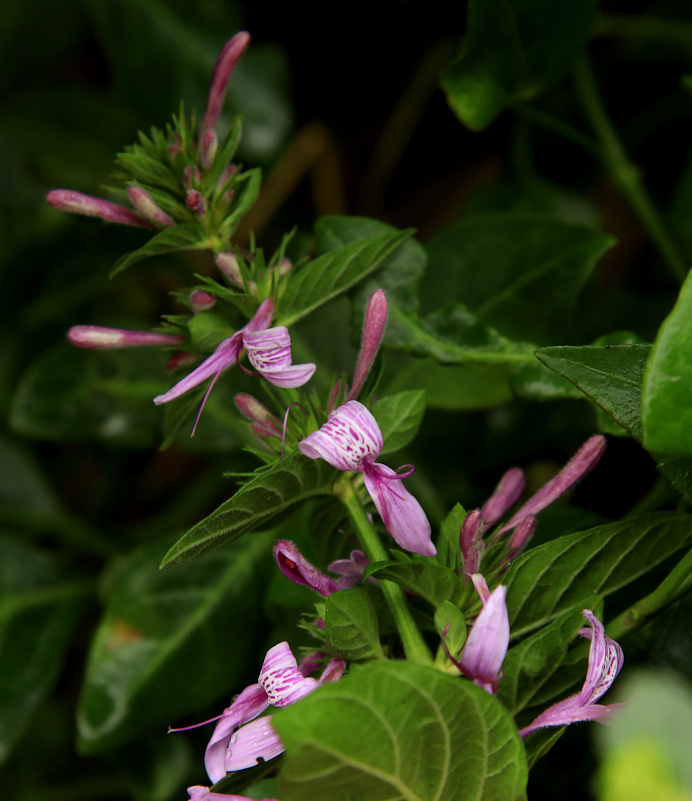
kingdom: Plantae
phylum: Tracheophyta
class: Magnoliopsida
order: Lamiales
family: Acanthaceae
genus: Hypoestes
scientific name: Hypoestes aristata
